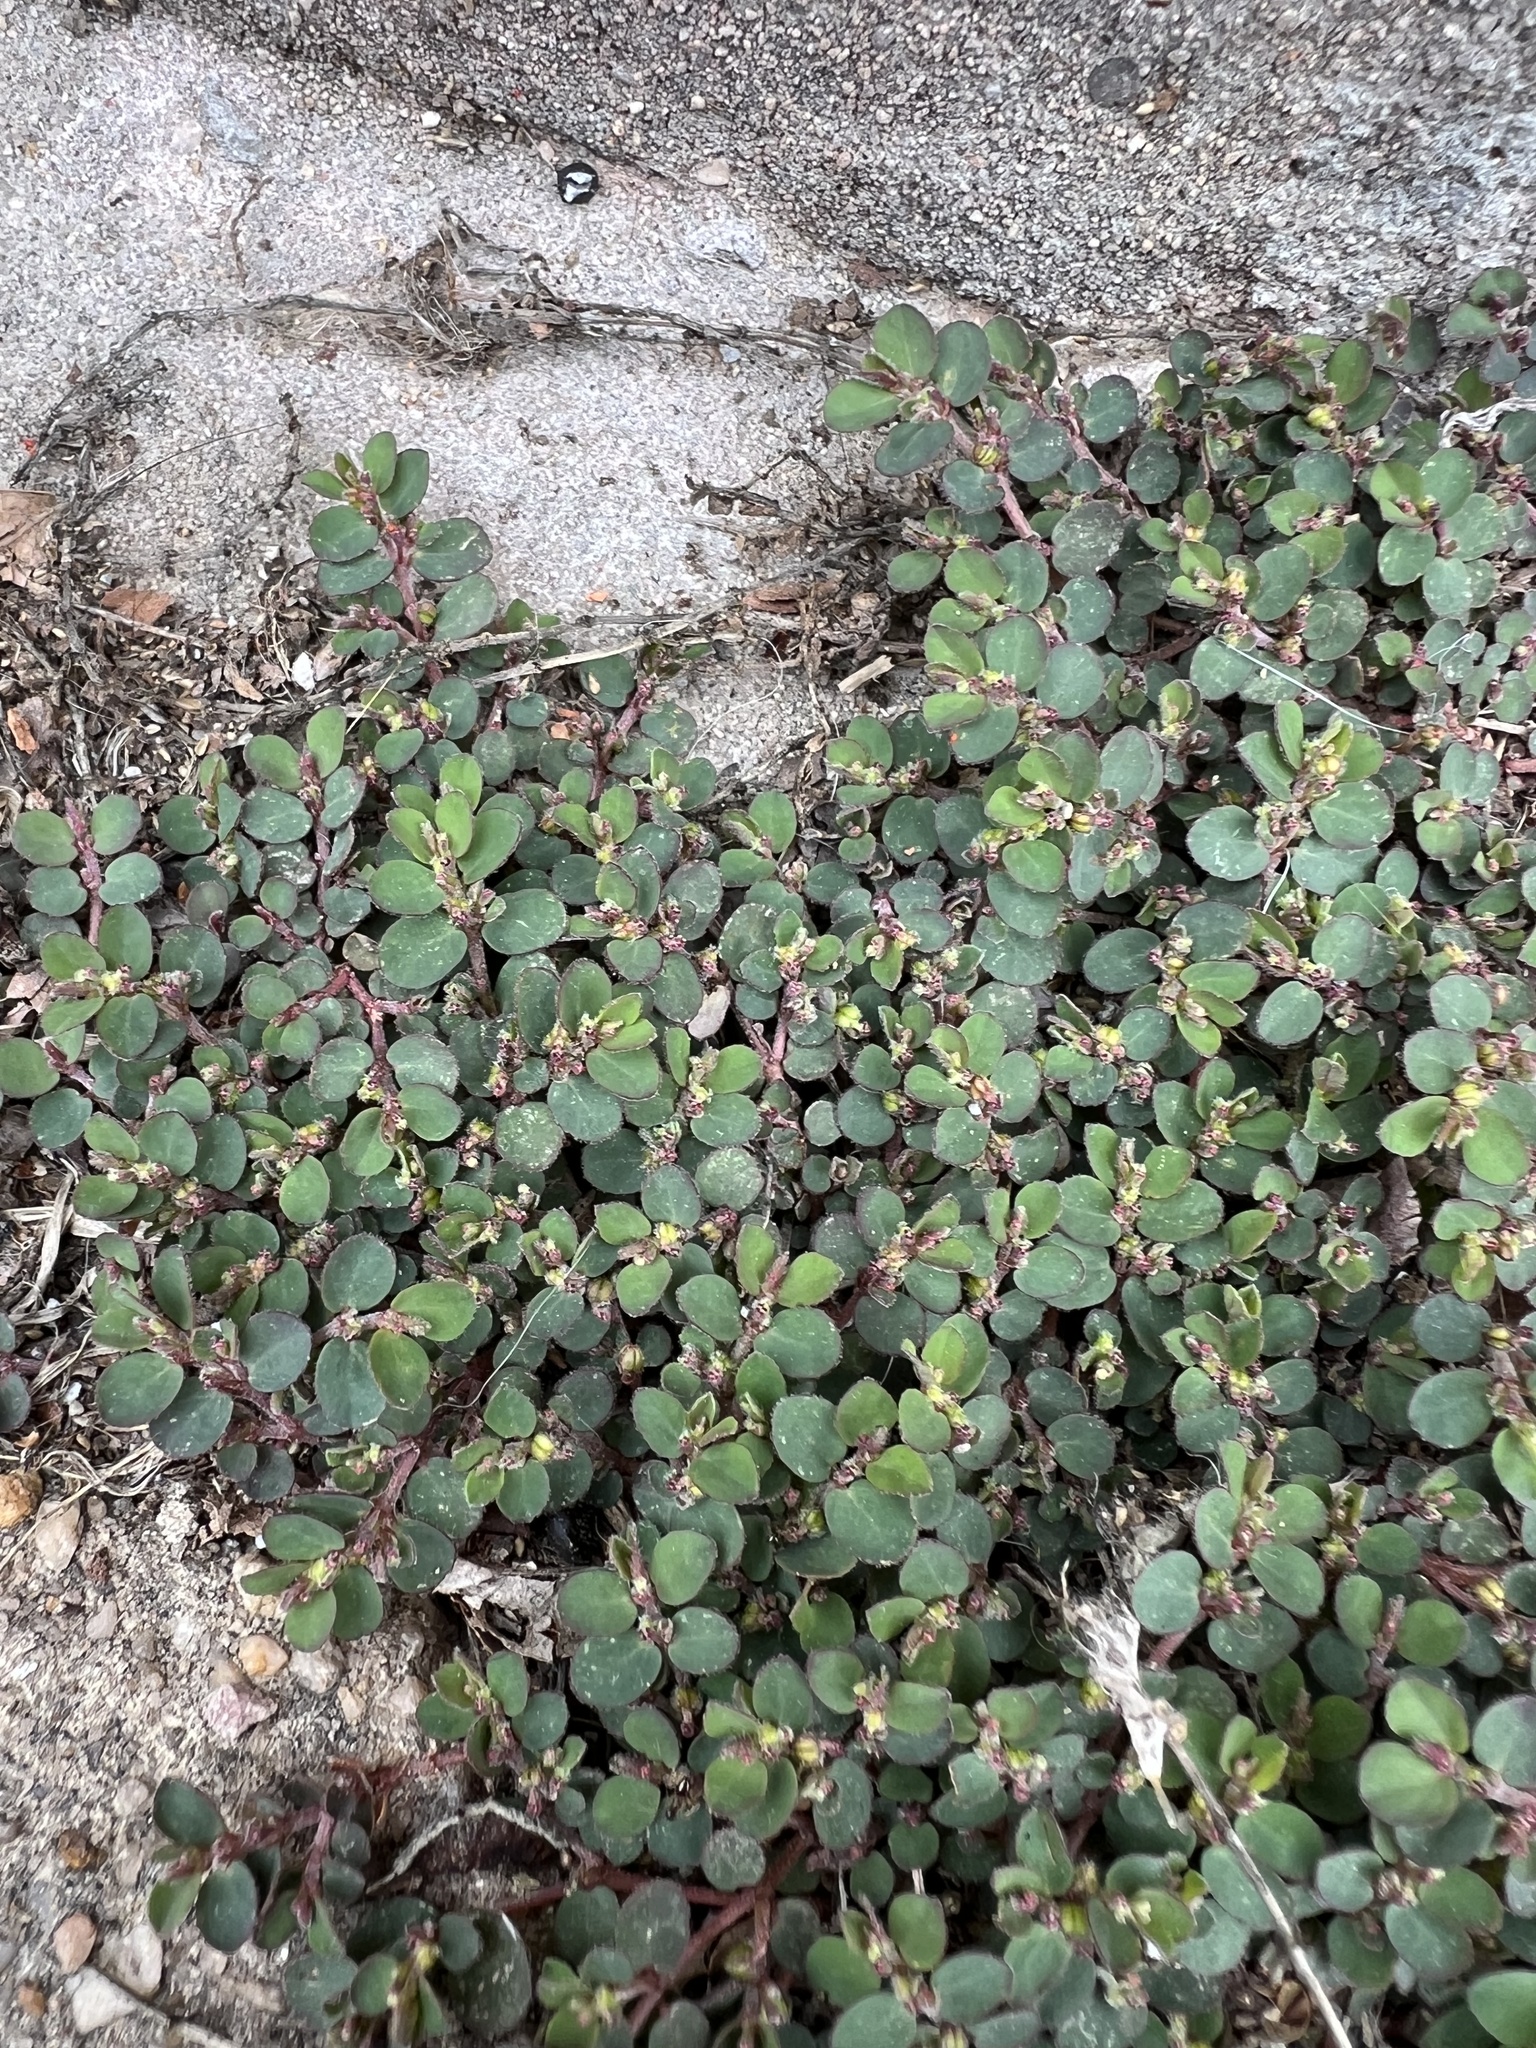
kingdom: Plantae
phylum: Tracheophyta
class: Magnoliopsida
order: Malpighiales
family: Euphorbiaceae
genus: Euphorbia
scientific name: Euphorbia prostrata
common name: Prostrate sandmat
